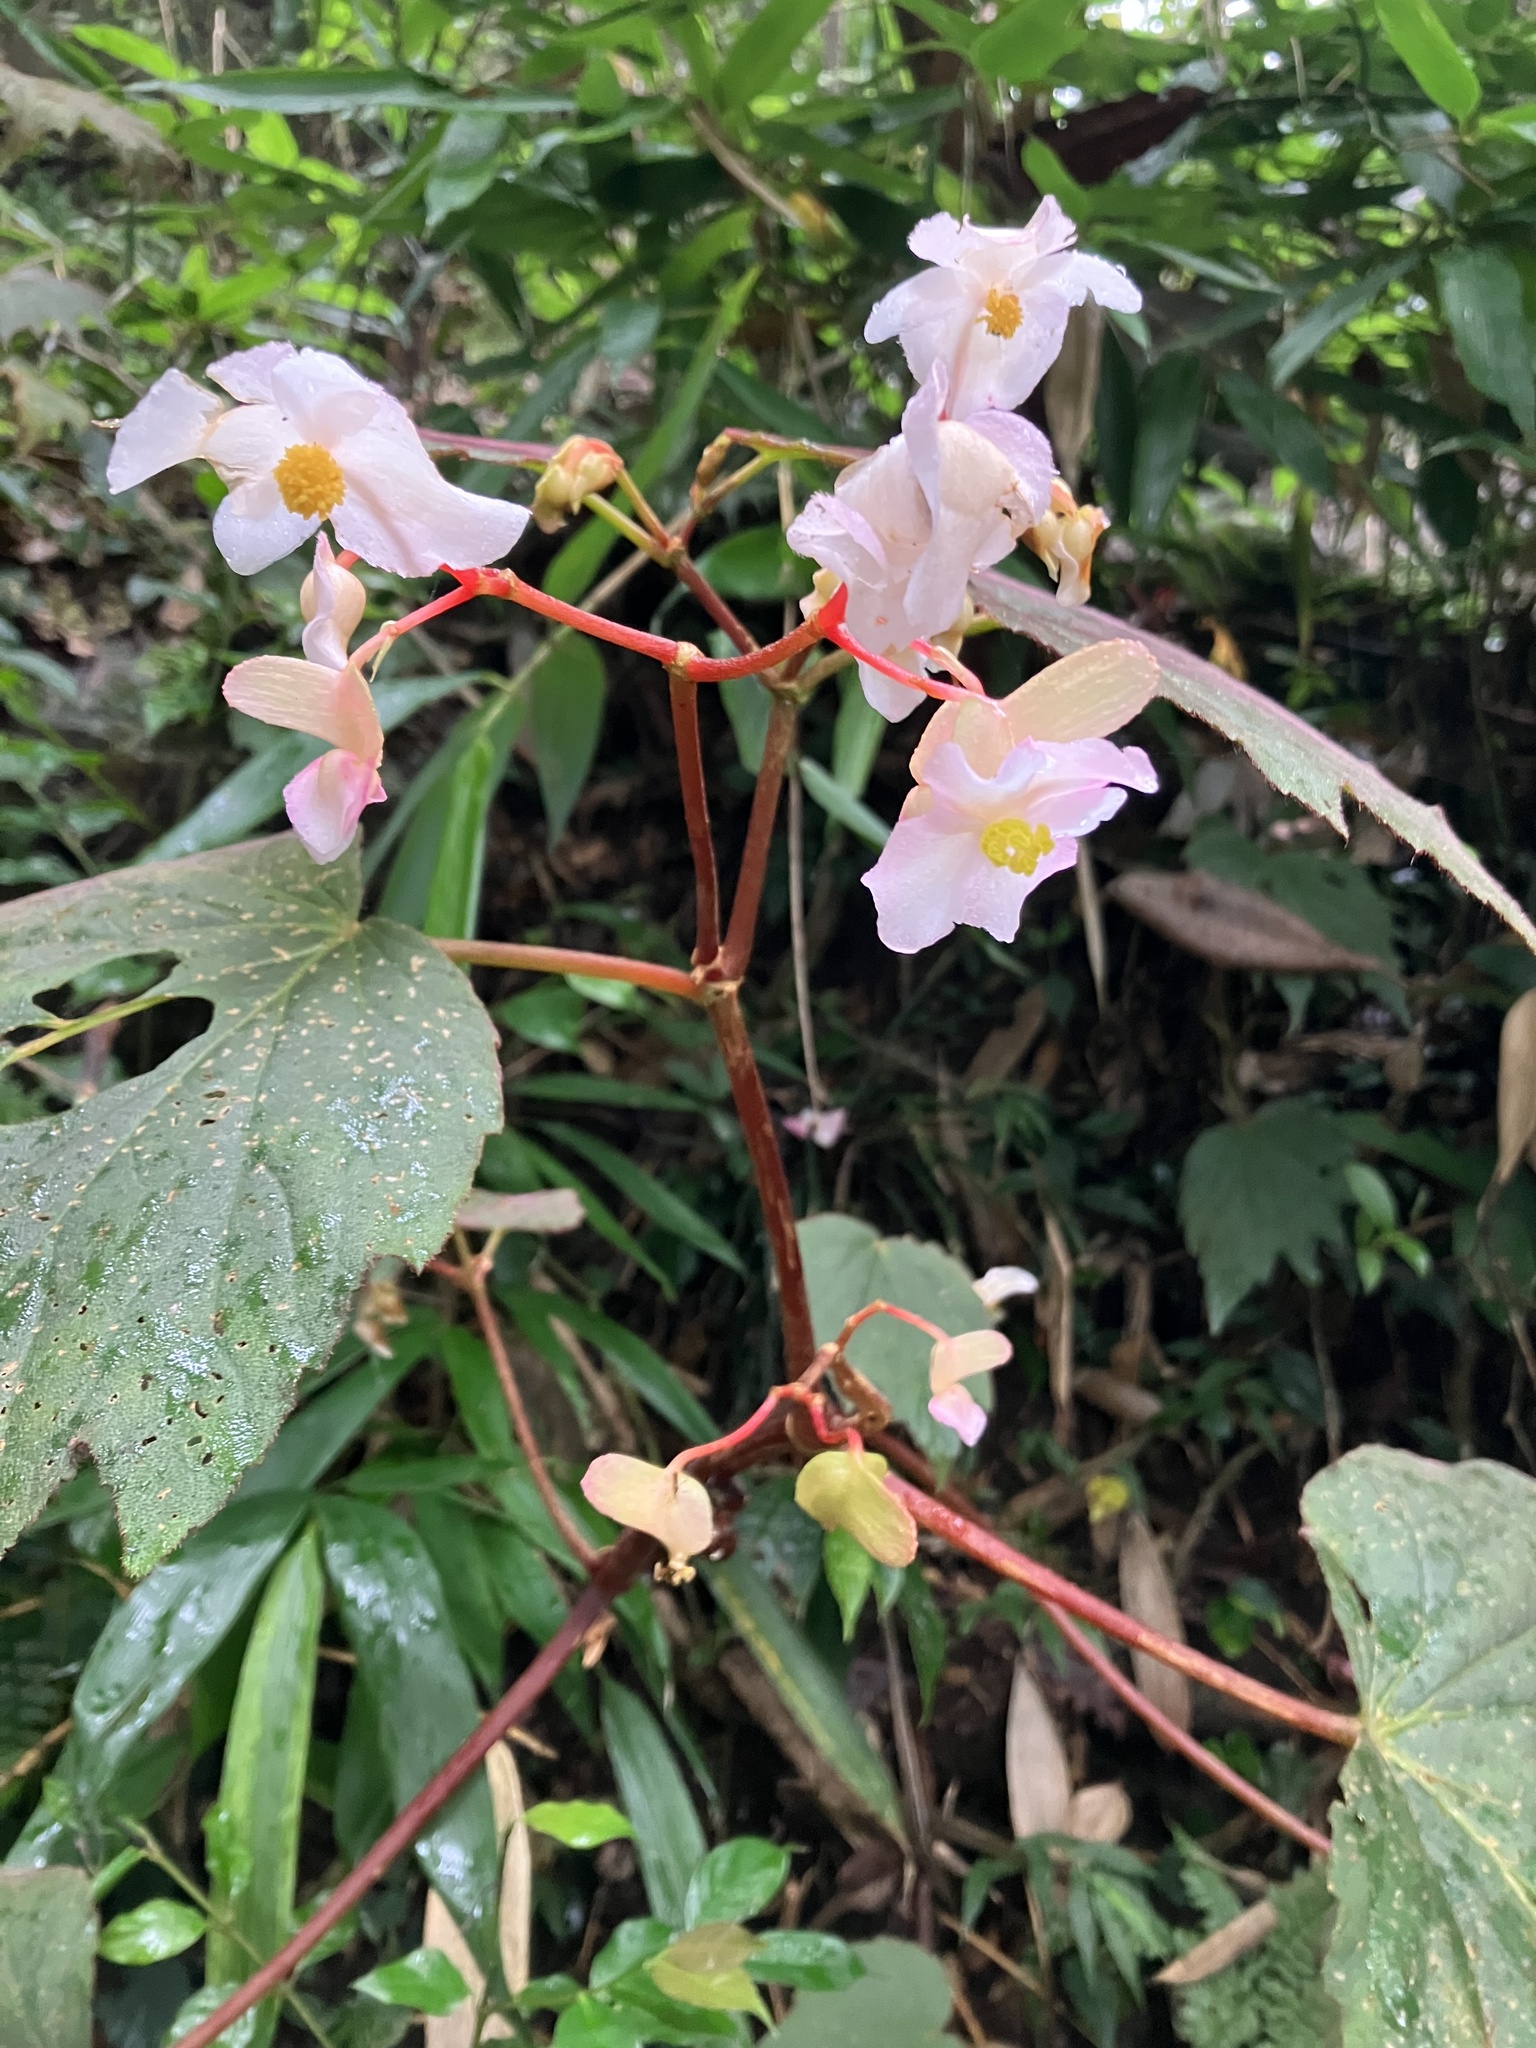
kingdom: Plantae
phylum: Tracheophyta
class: Magnoliopsida
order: Cucurbitales
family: Begoniaceae
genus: Begonia
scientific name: Begonia palmata
